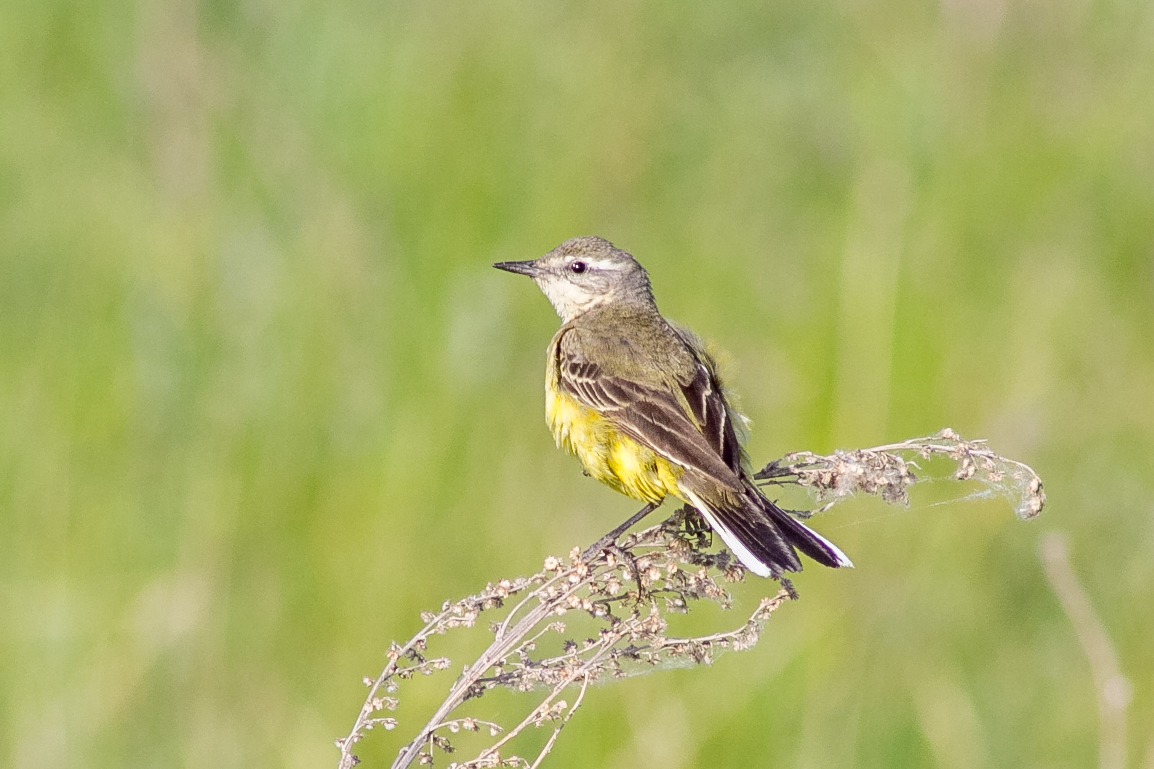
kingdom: Animalia
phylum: Chordata
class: Aves
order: Passeriformes
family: Motacillidae
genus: Motacilla
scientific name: Motacilla flava
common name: Western yellow wagtail
